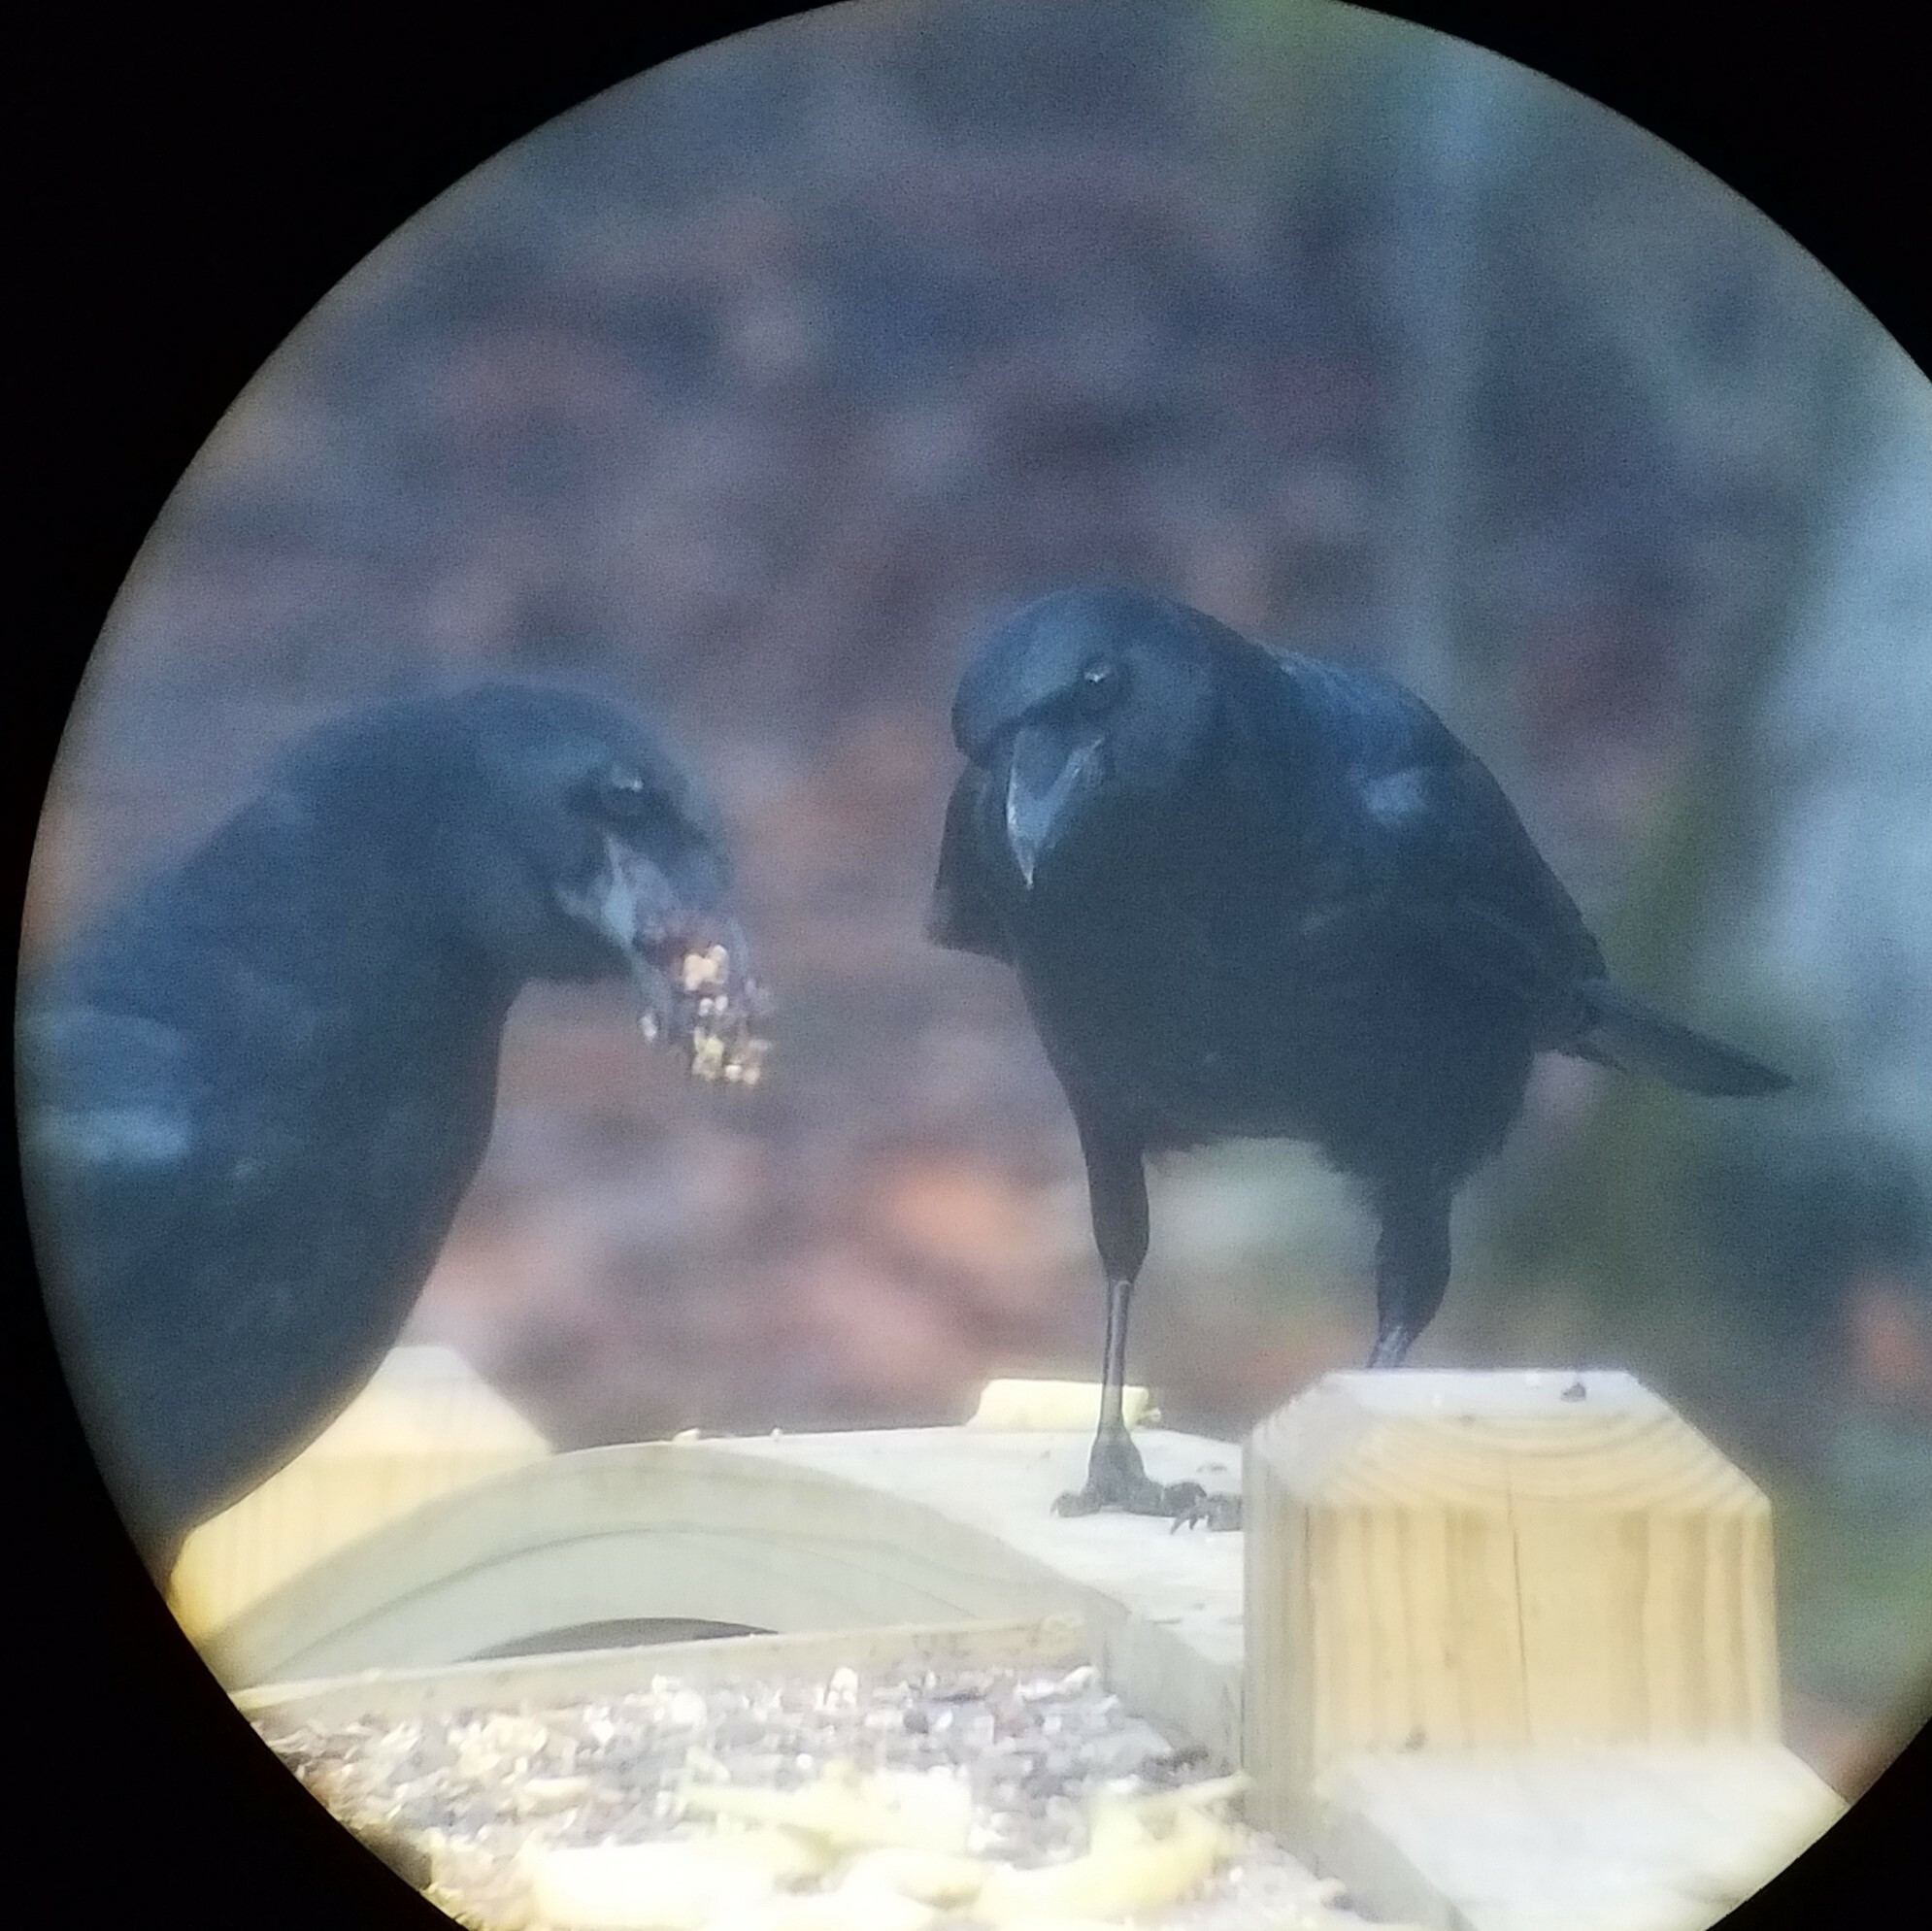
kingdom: Animalia
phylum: Chordata
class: Aves
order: Passeriformes
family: Corvidae
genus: Corvus
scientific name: Corvus brachyrhynchos
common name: American crow
